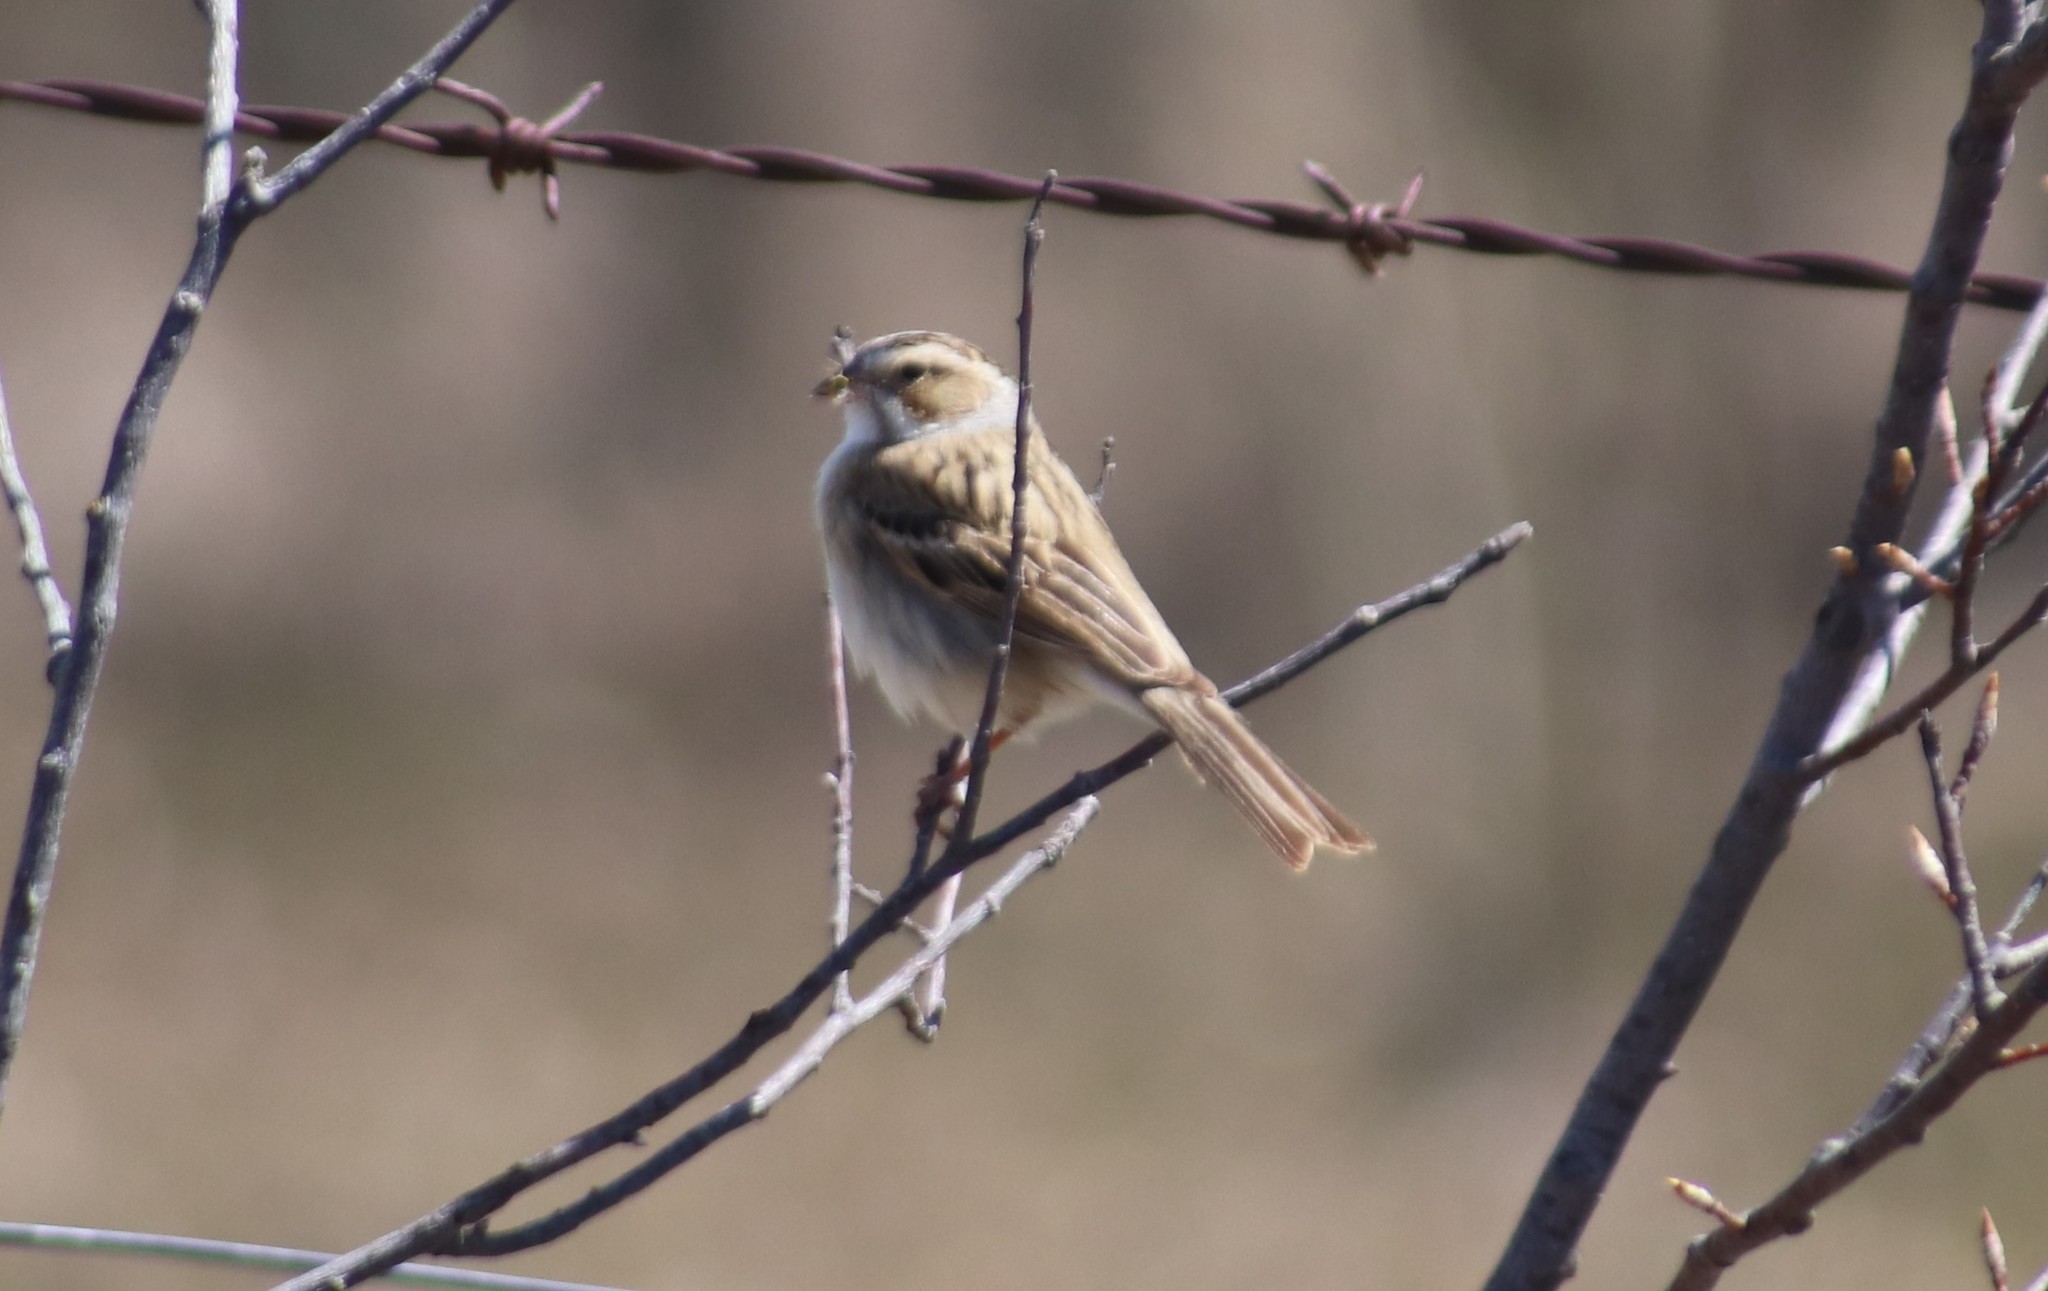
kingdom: Animalia
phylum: Chordata
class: Aves
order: Passeriformes
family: Passerellidae
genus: Spizella
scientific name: Spizella pallida
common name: Clay-colored sparrow
